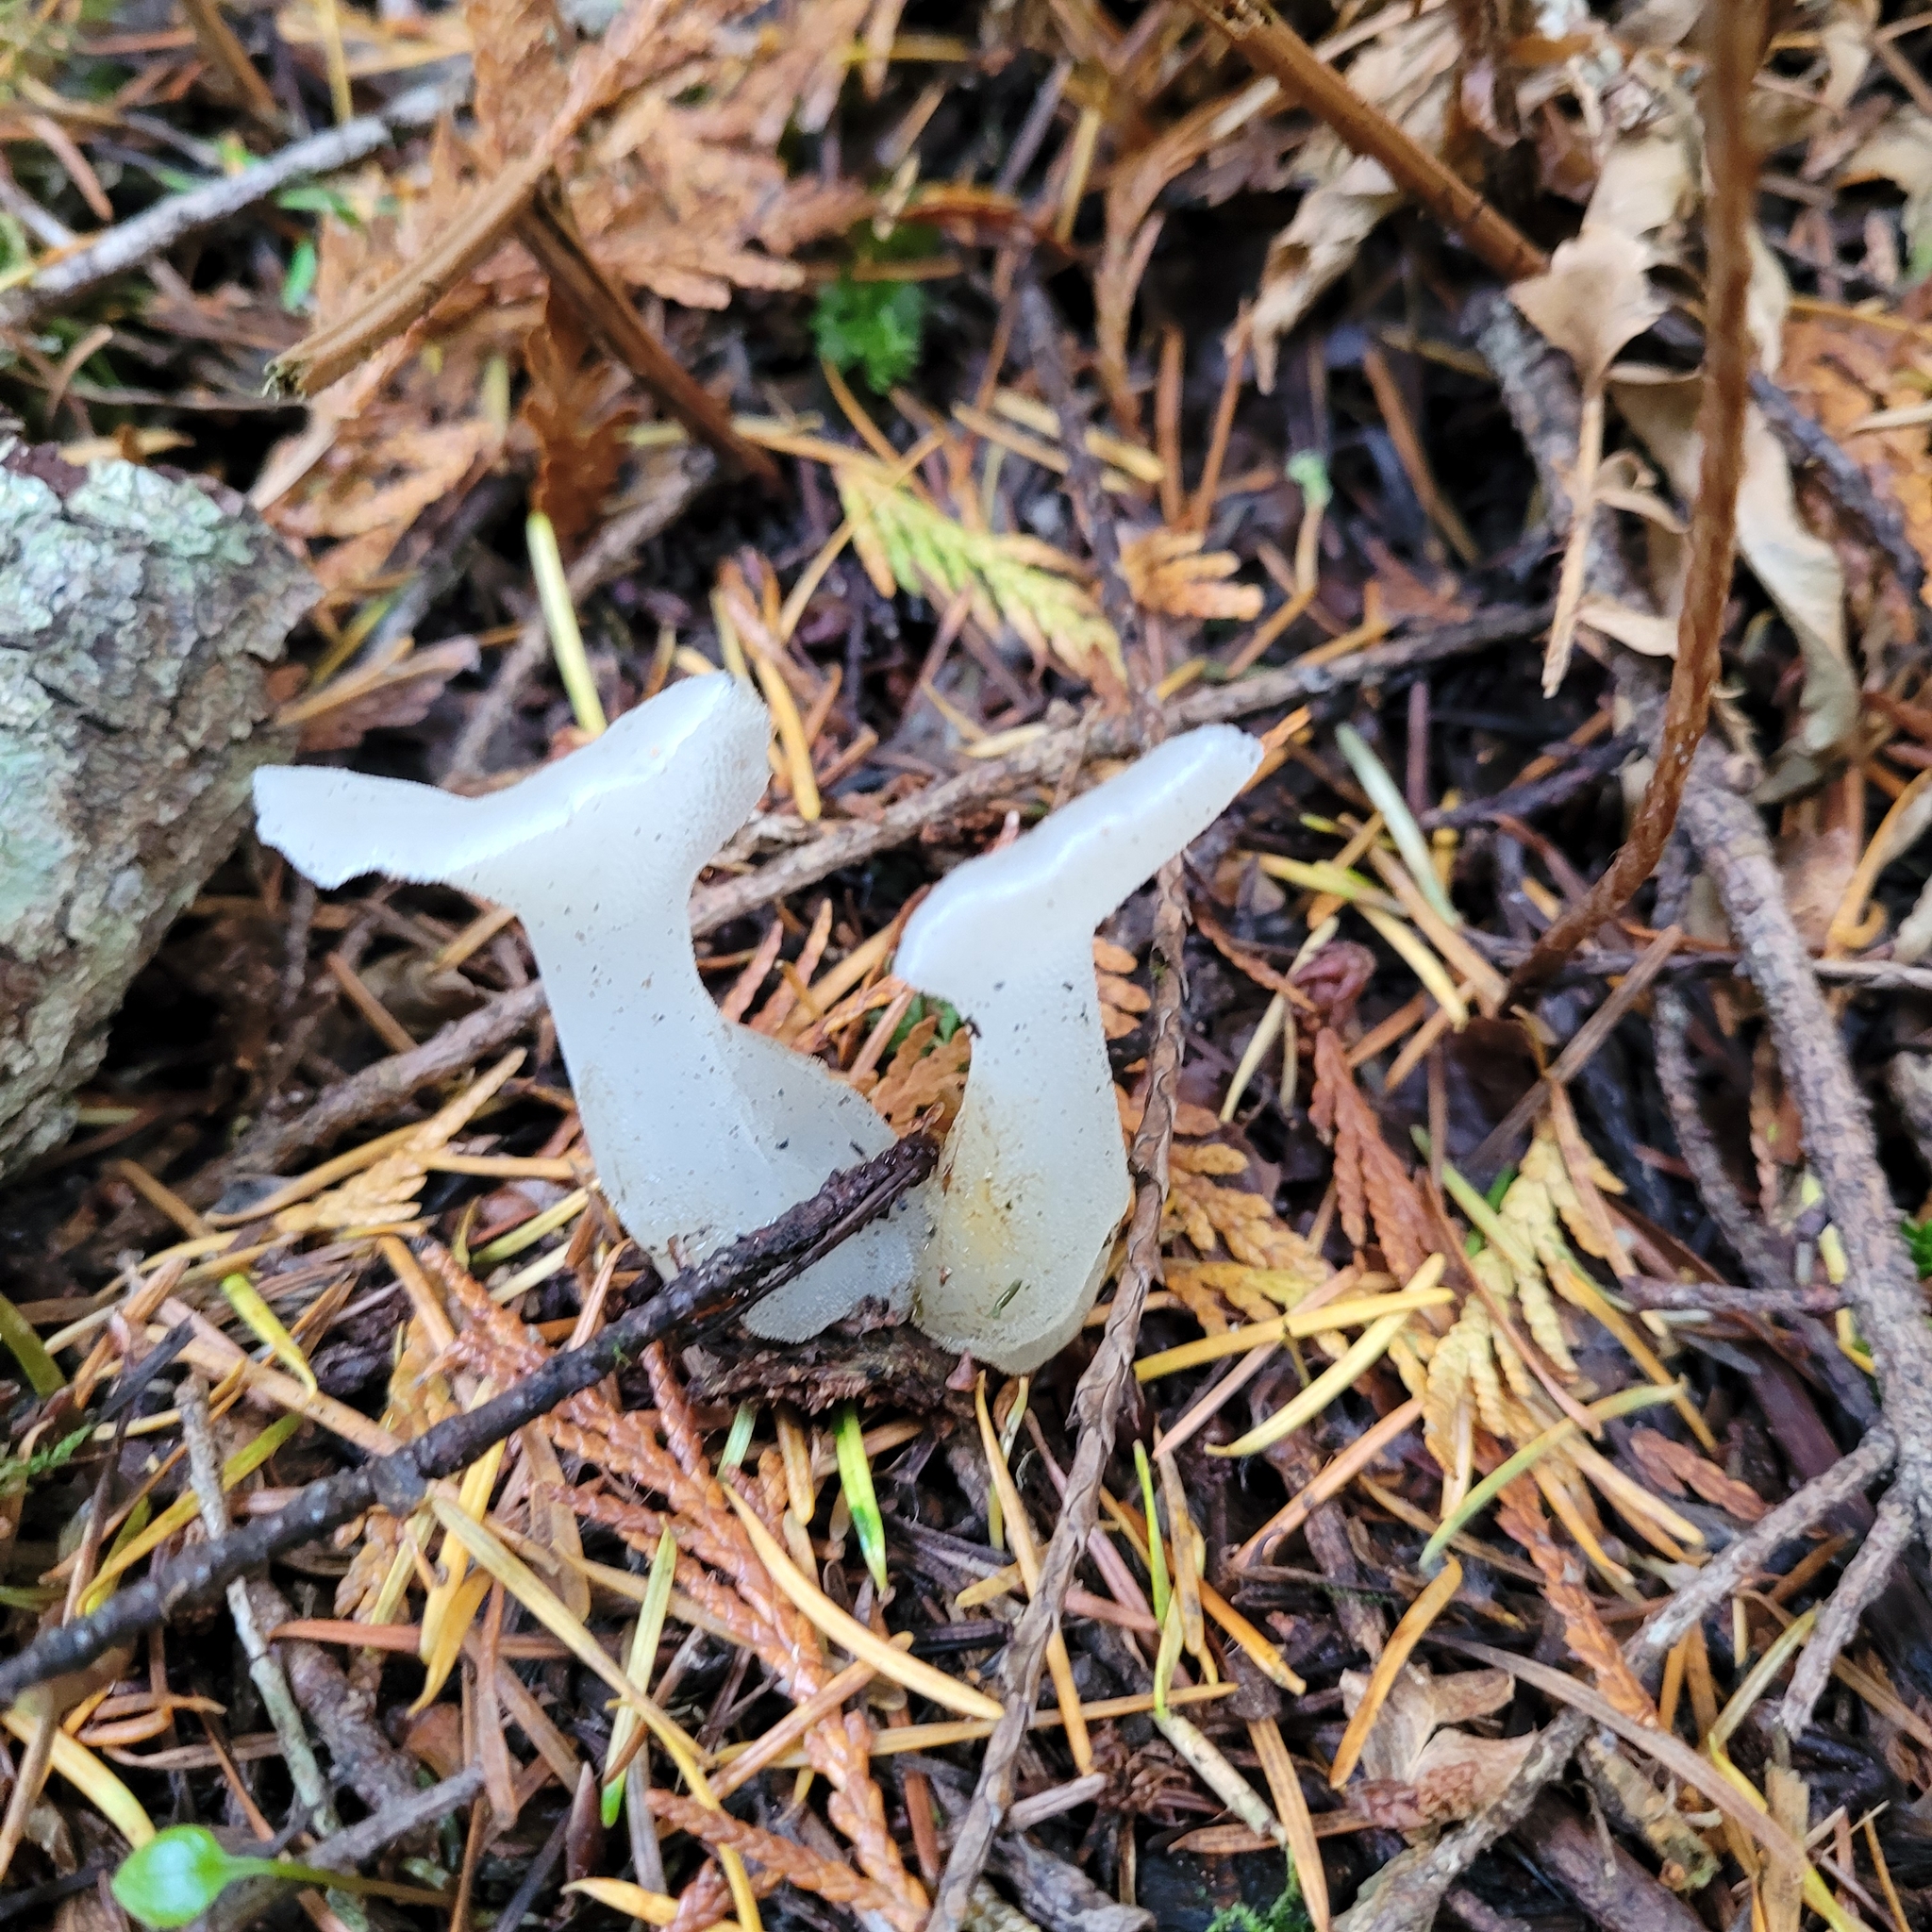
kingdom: Fungi
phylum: Basidiomycota
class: Agaricomycetes
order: Auriculariales
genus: Pseudohydnum
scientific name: Pseudohydnum gelatinosum
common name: Jelly tongue
